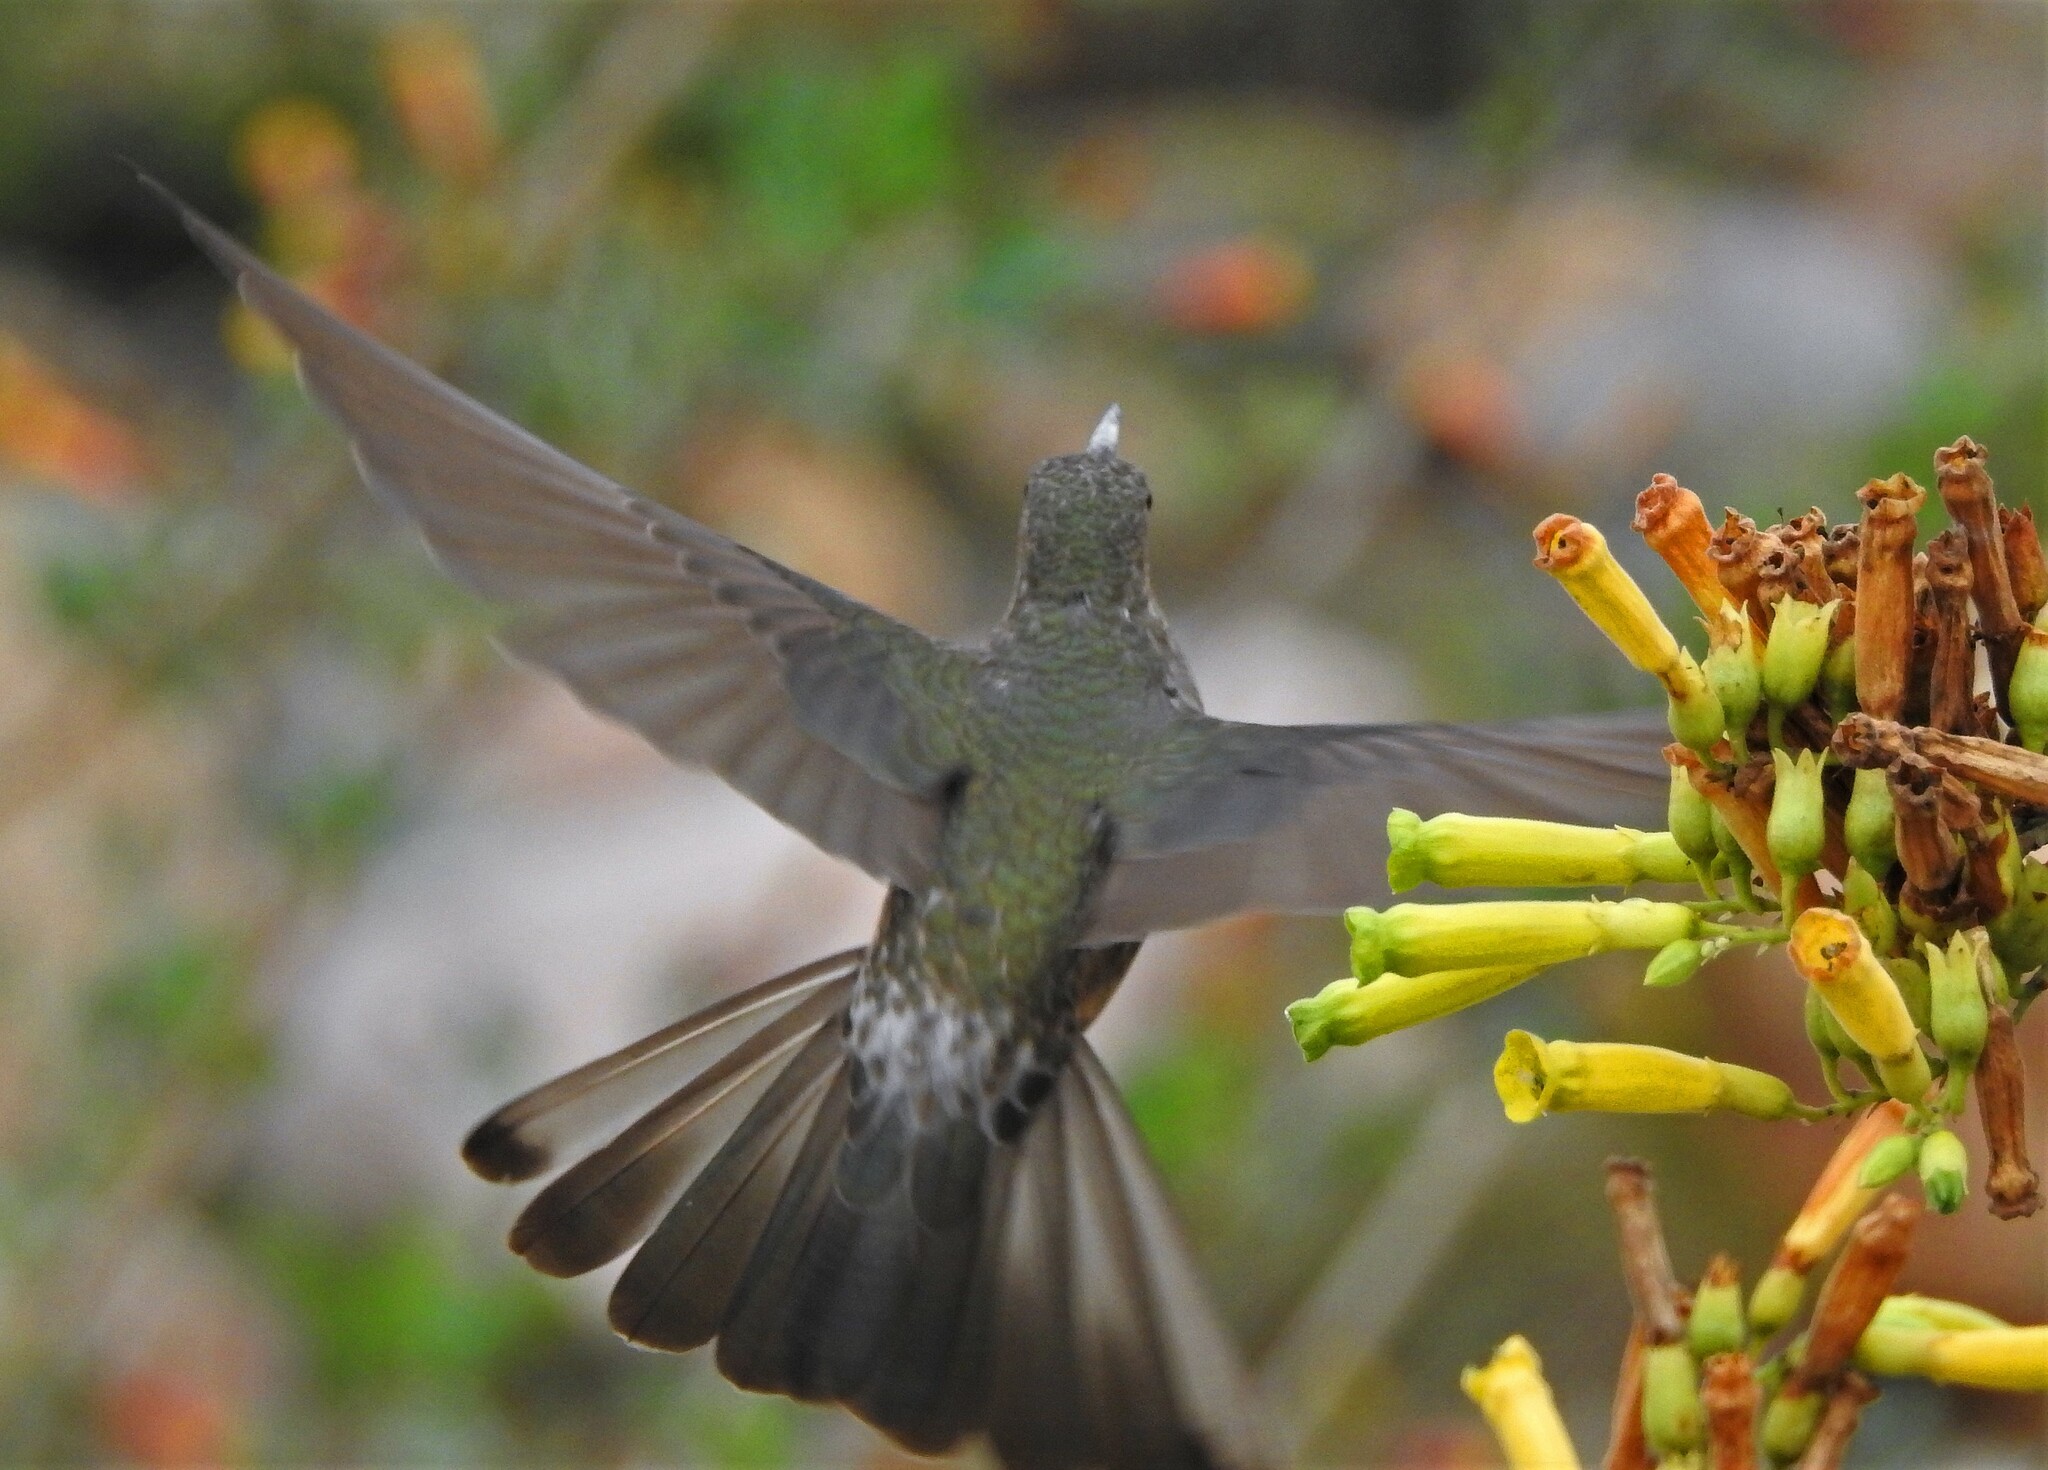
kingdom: Animalia
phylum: Chordata
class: Aves
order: Apodiformes
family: Trochilidae
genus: Patagona
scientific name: Patagona gigas
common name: Giant hummingbird
